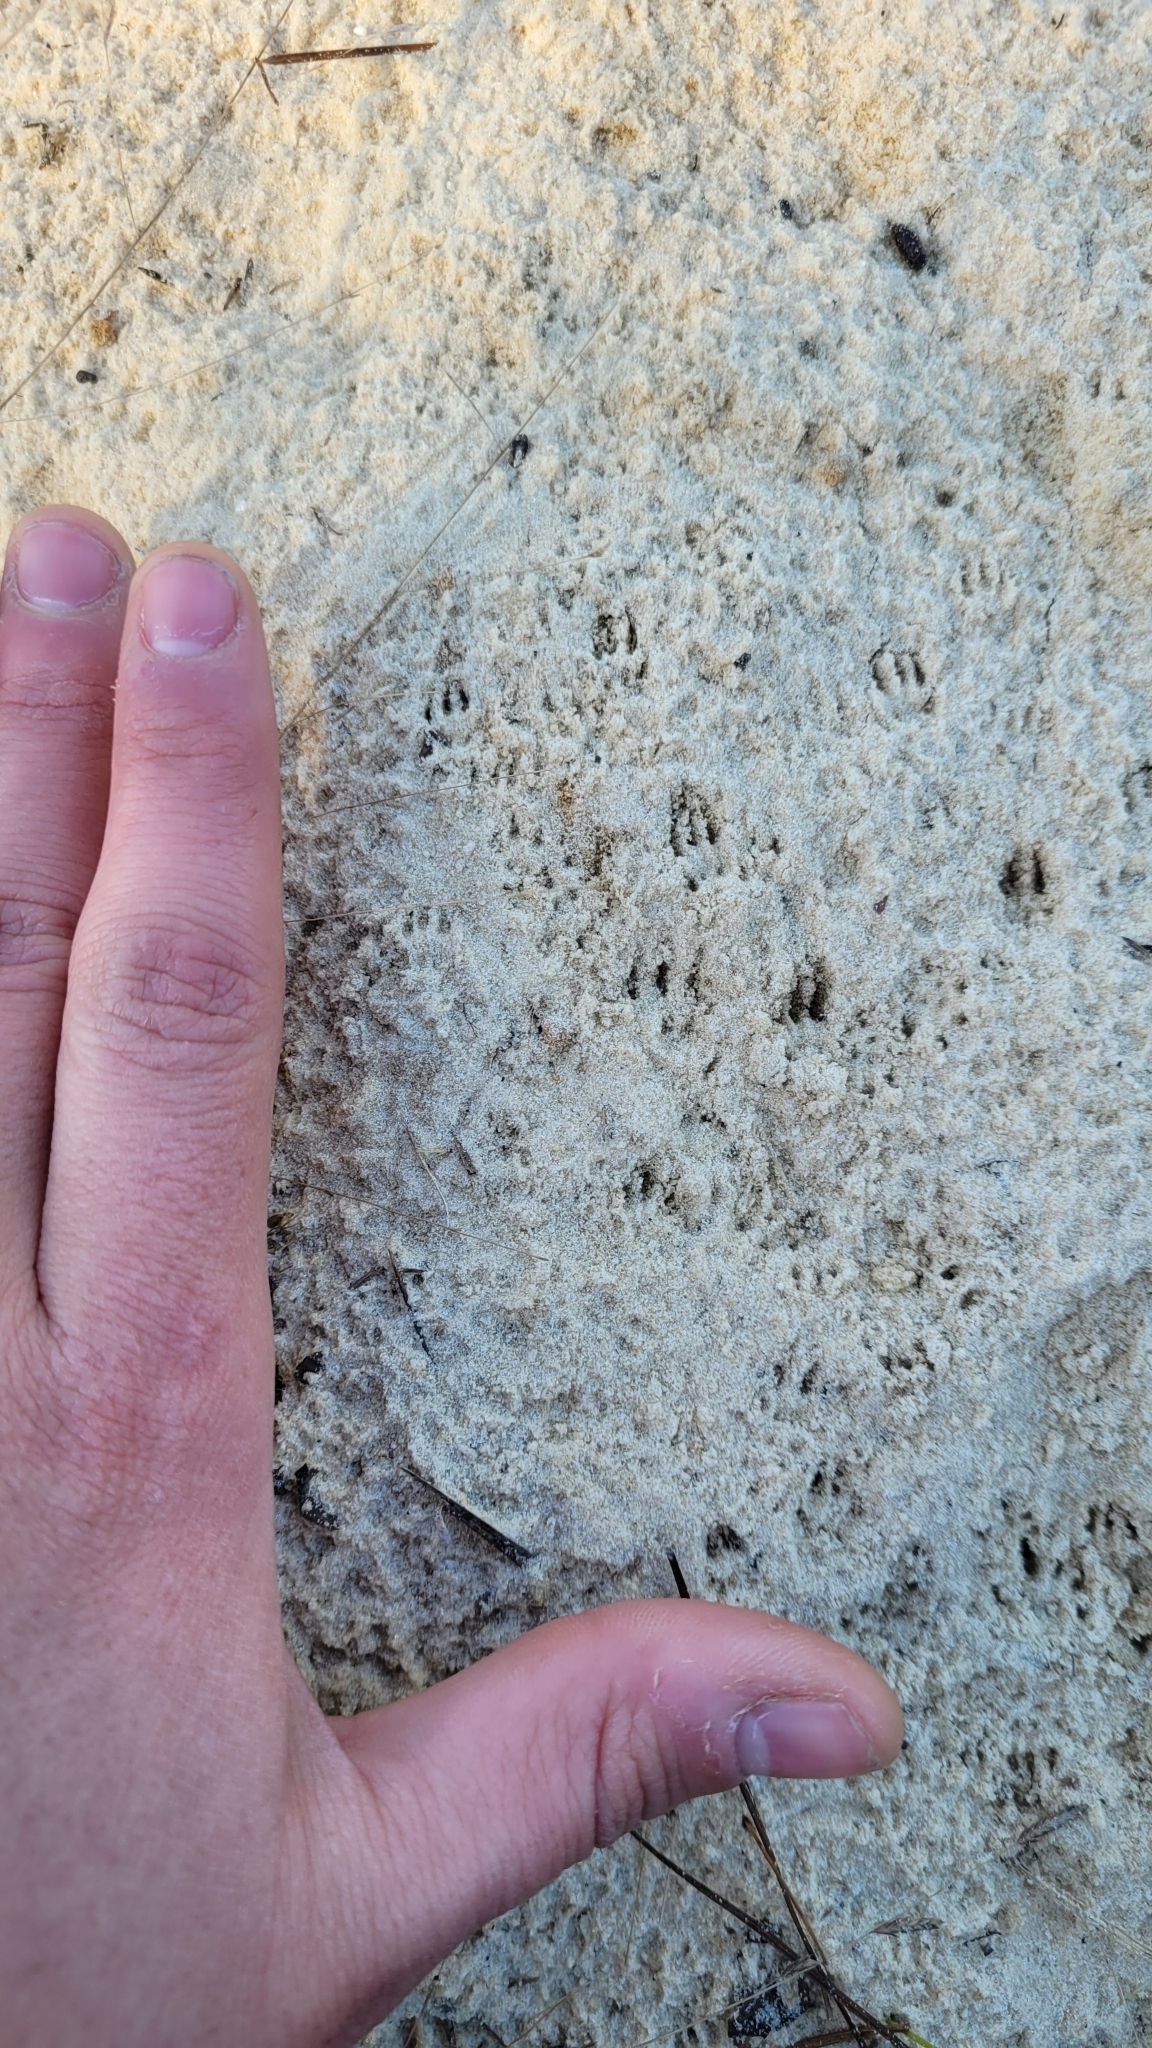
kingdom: Animalia
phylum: Chordata
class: Mammalia
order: Rodentia
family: Cricetidae
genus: Podomys
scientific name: Podomys floridanus
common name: Florida mouse
